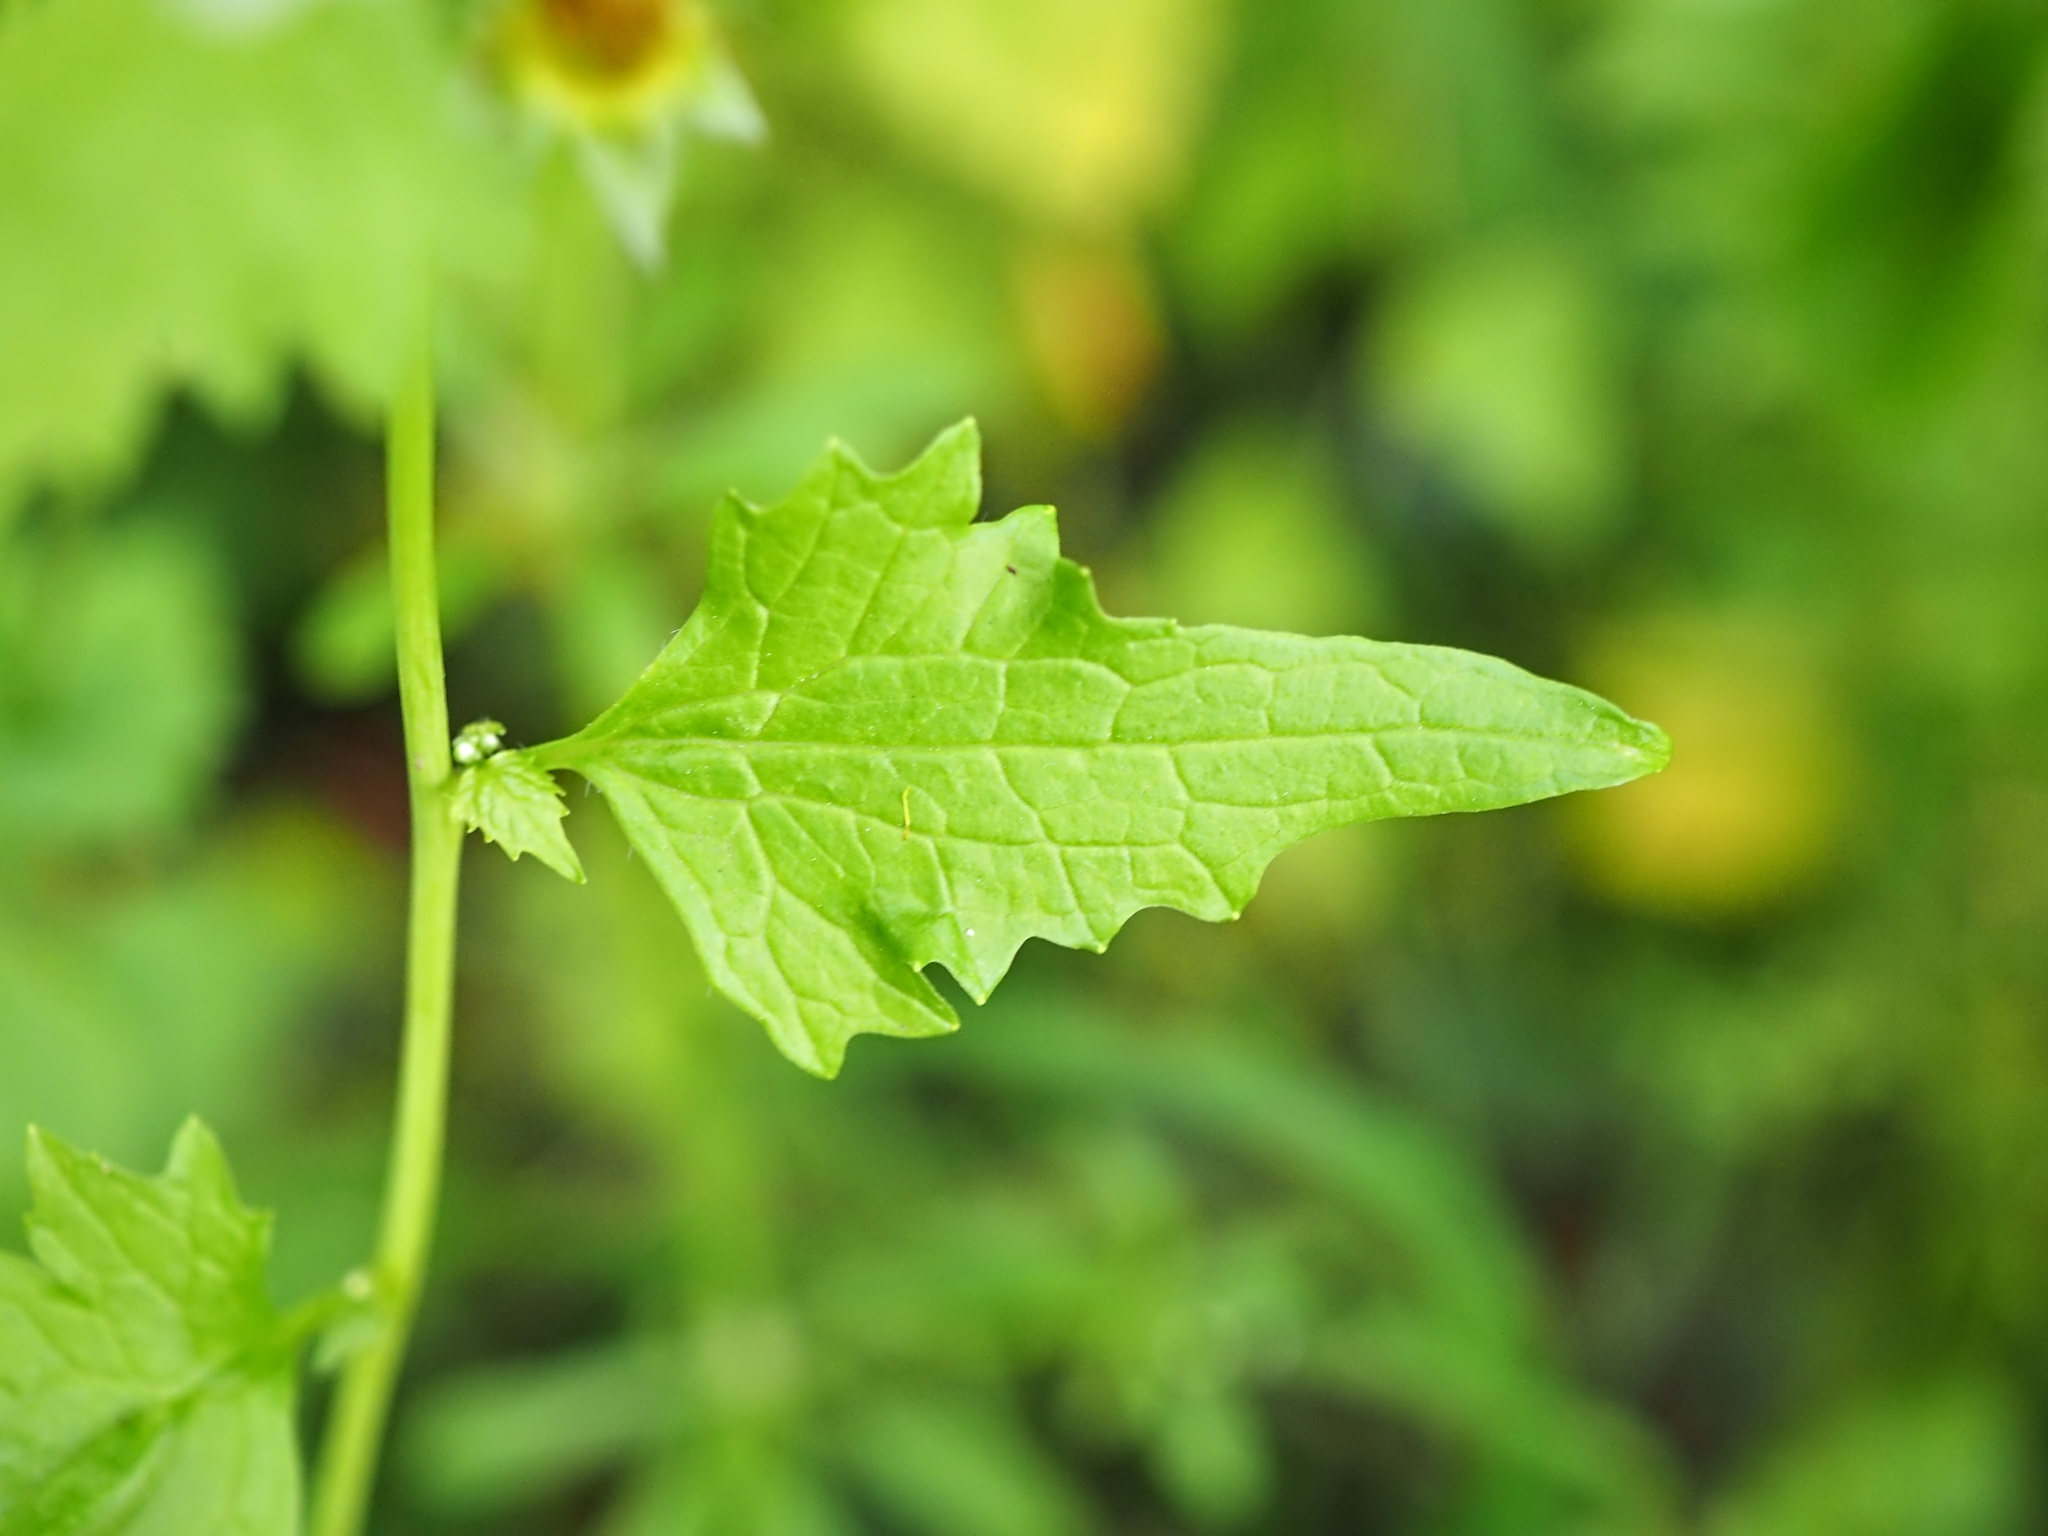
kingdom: Plantae
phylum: Tracheophyta
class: Magnoliopsida
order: Brassicales
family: Brassicaceae
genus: Alliaria
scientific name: Alliaria petiolata
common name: Garlic mustard
